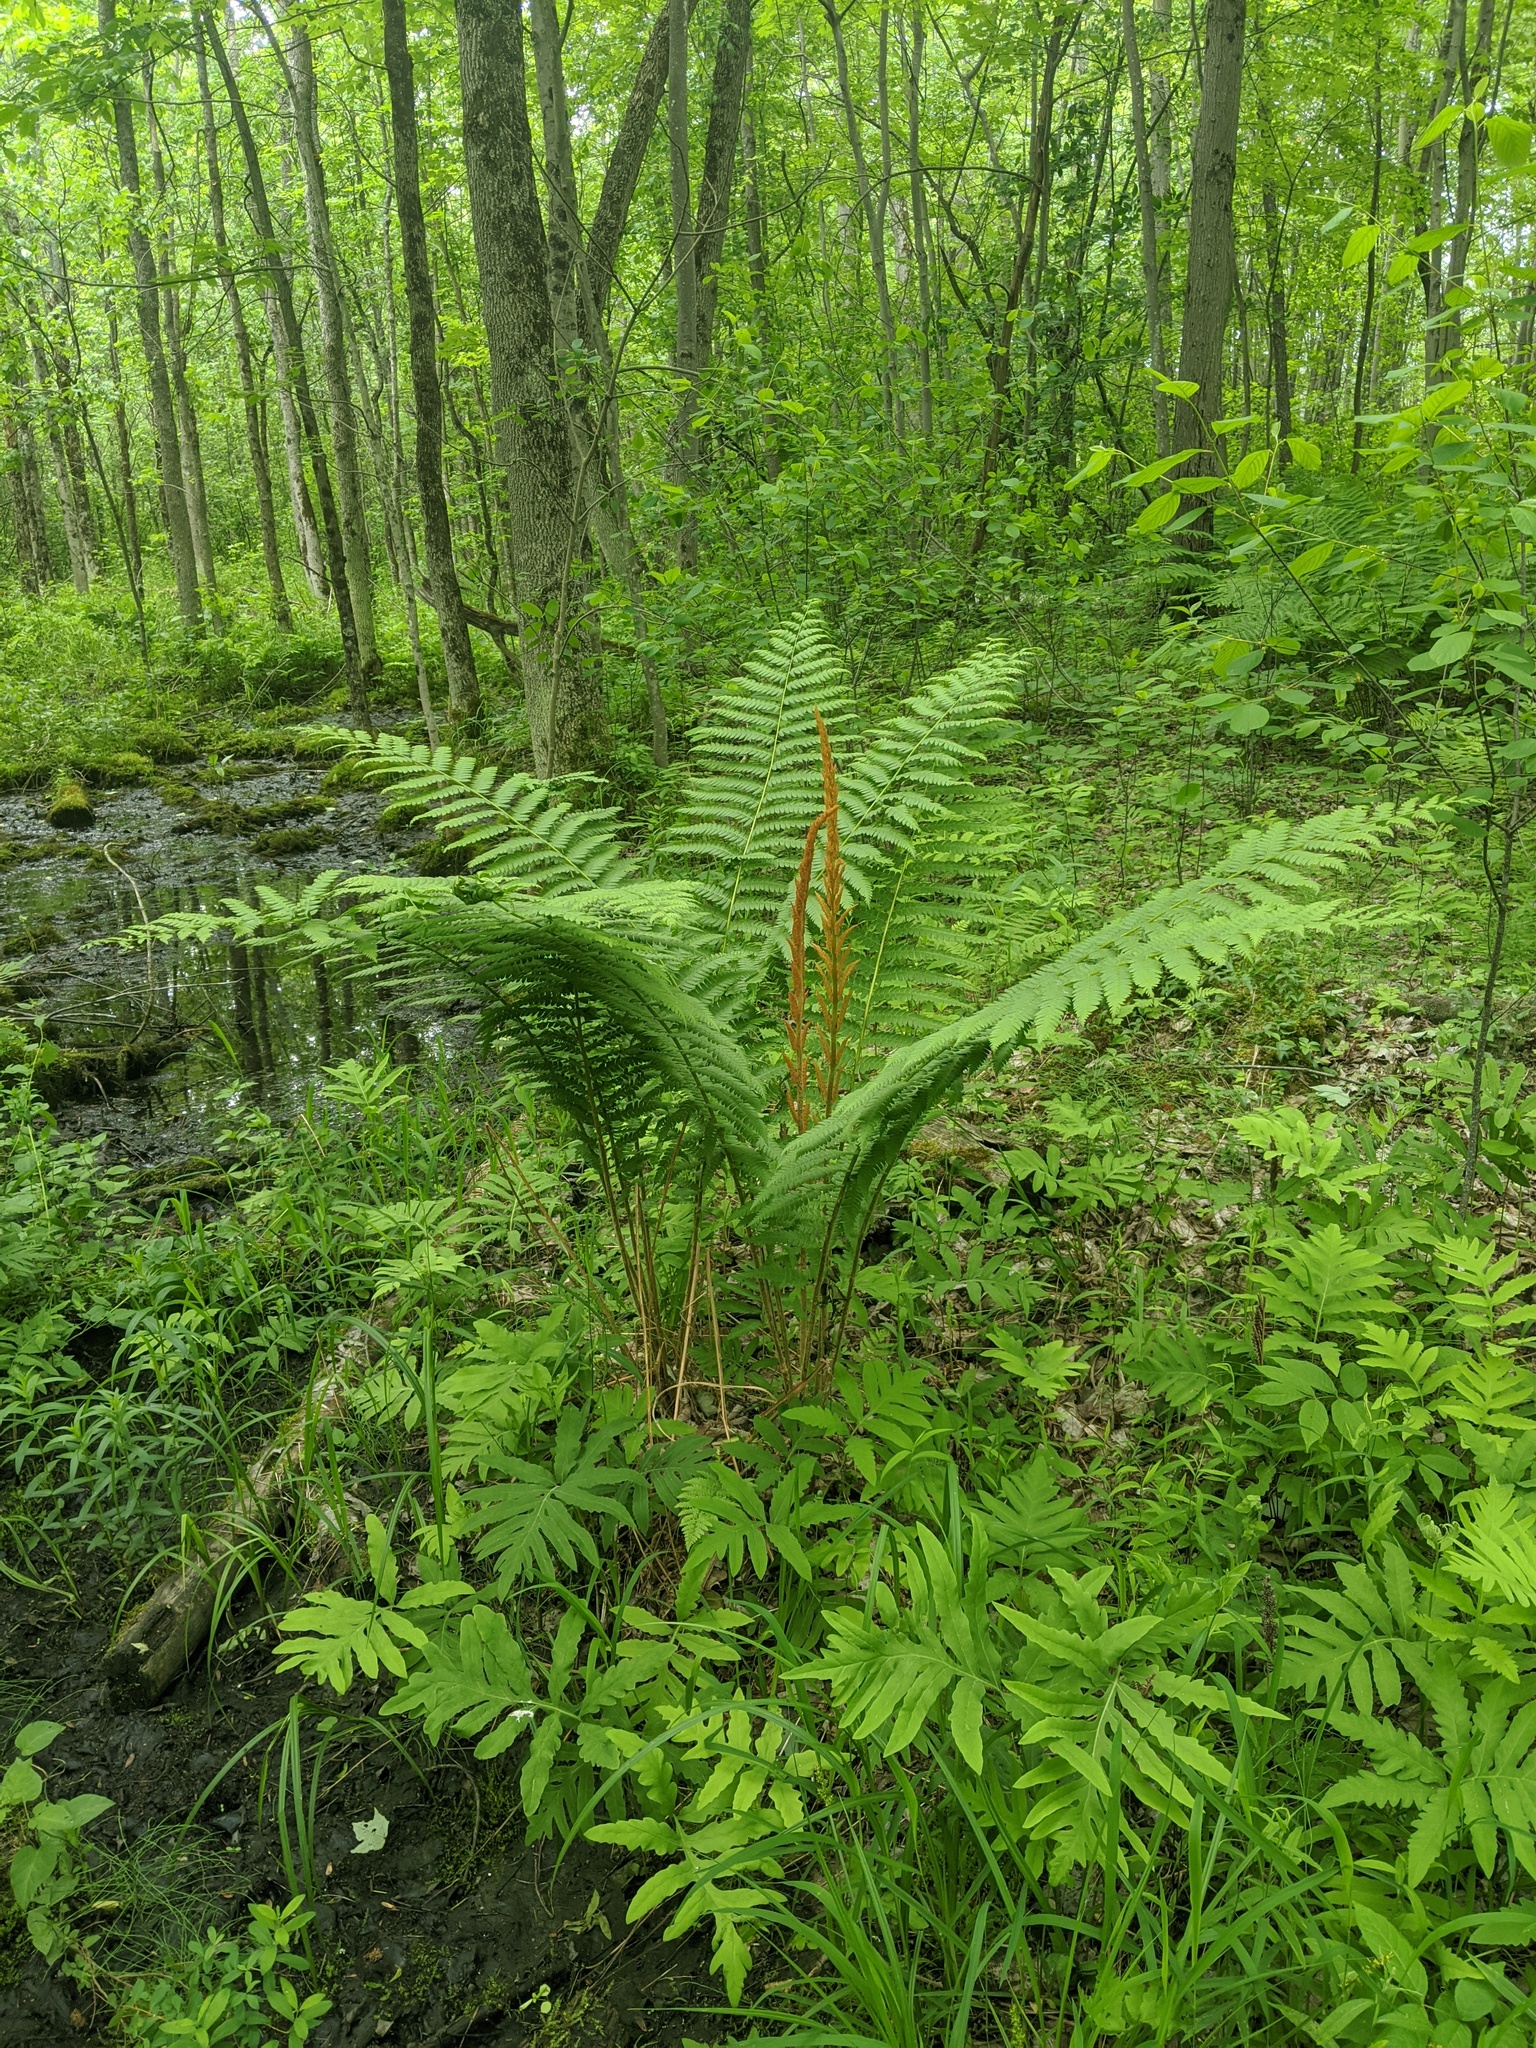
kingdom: Plantae
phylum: Tracheophyta
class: Polypodiopsida
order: Osmundales
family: Osmundaceae
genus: Osmundastrum
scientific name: Osmundastrum cinnamomeum
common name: Cinnamon fern
